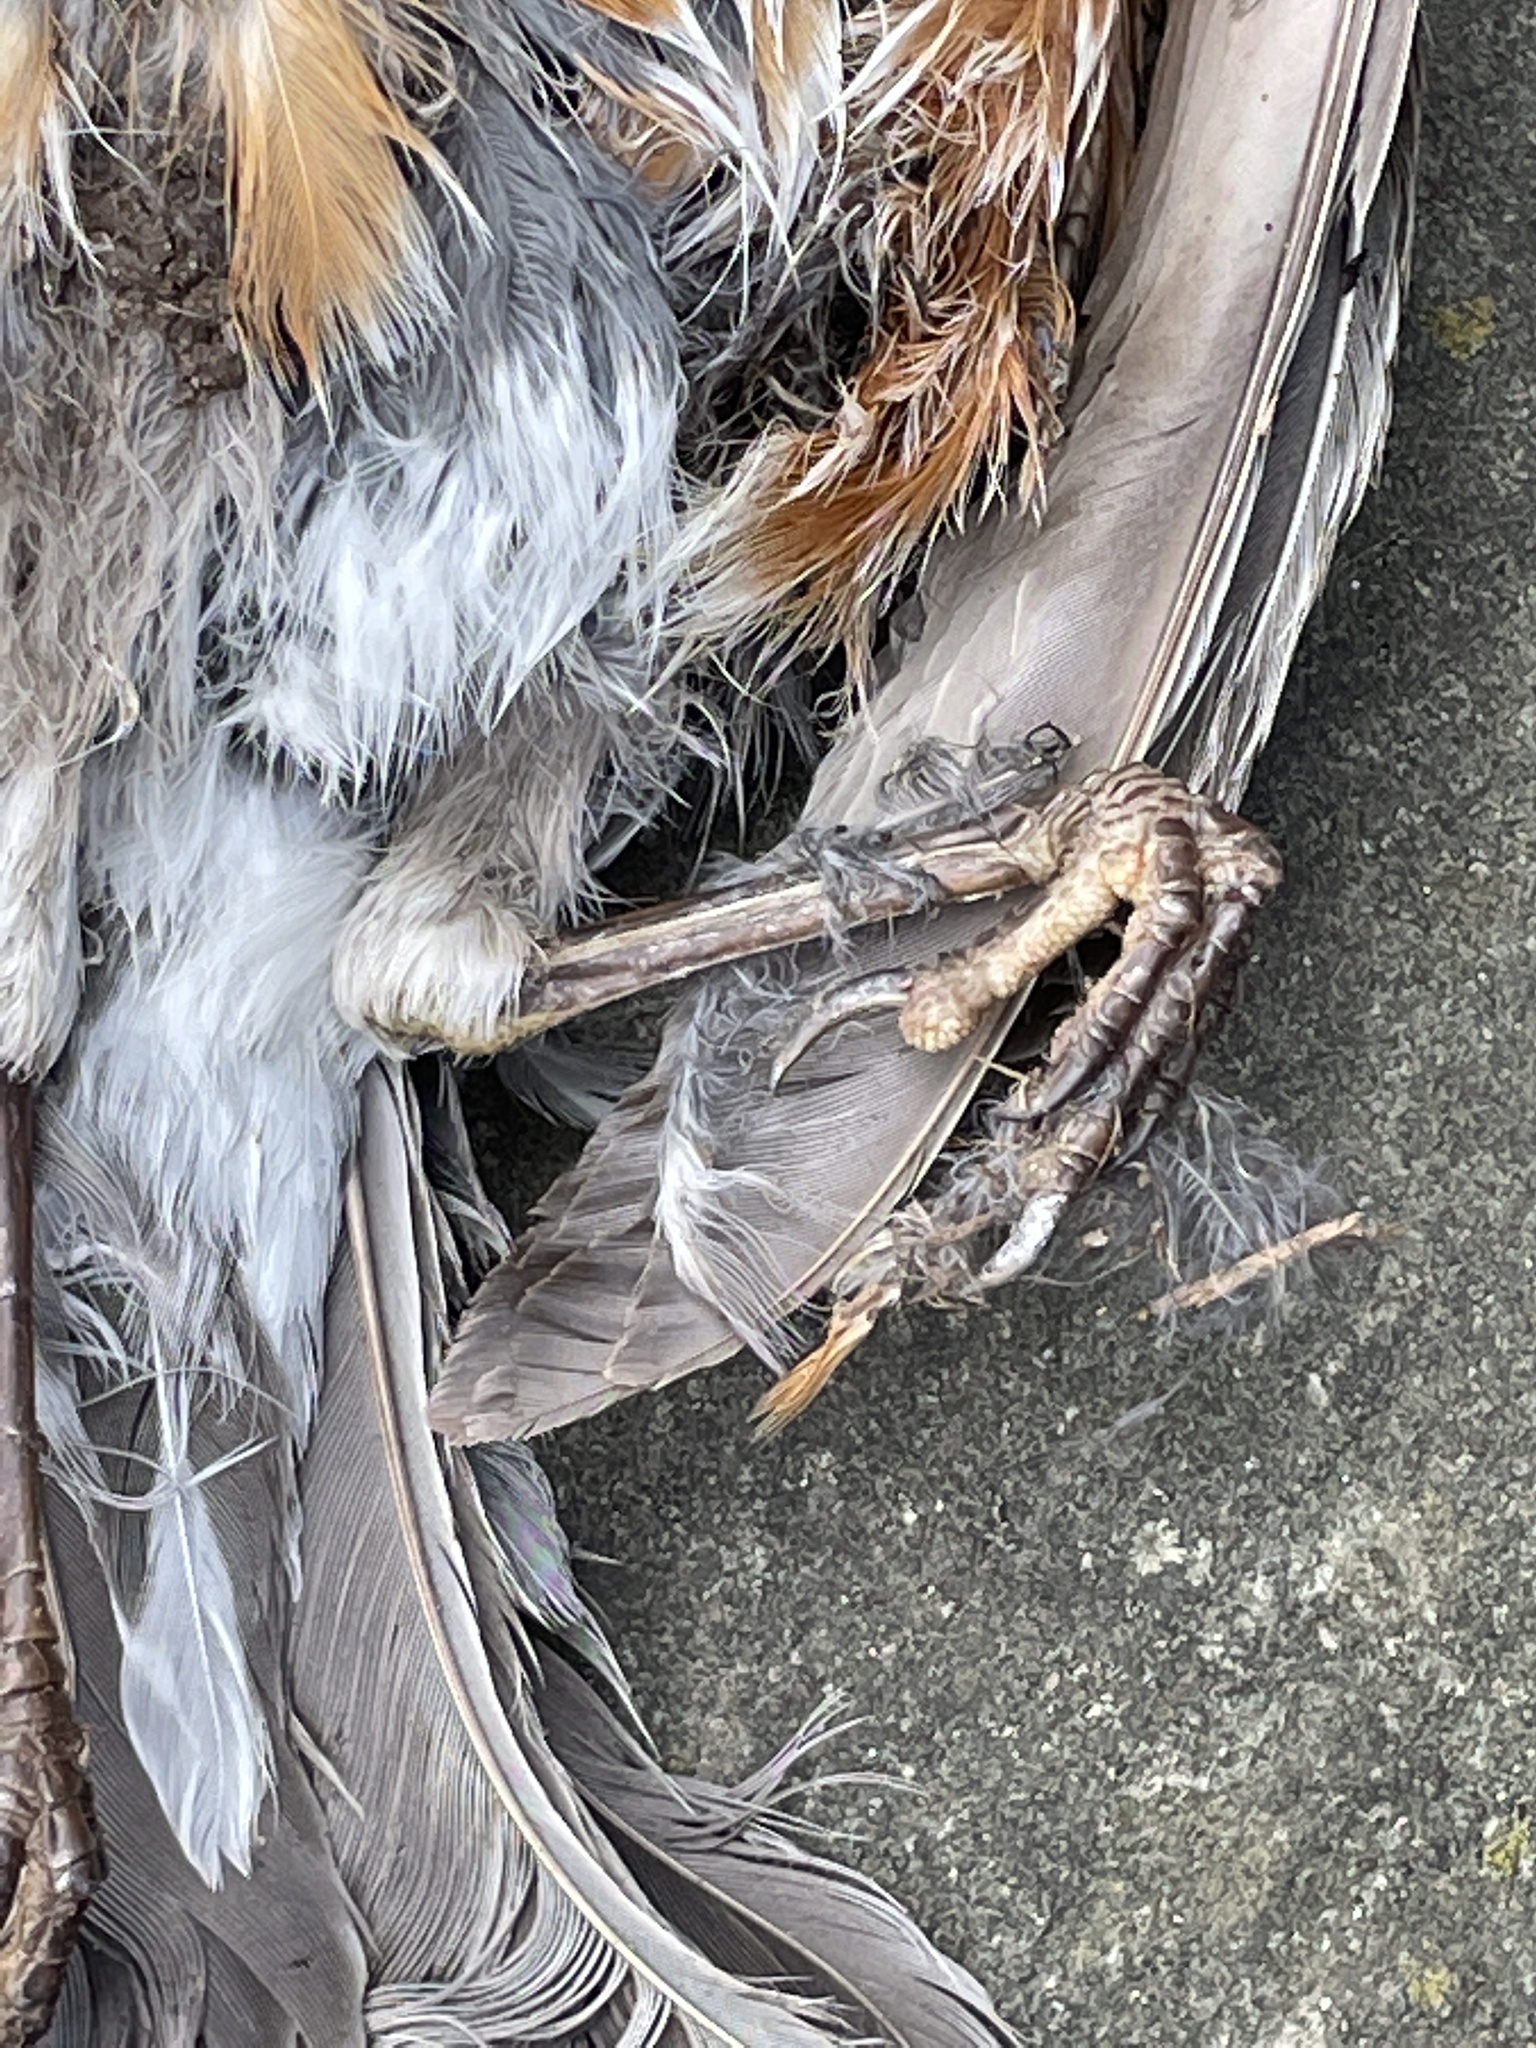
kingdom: Animalia
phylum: Chordata
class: Aves
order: Passeriformes
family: Turdidae
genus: Turdus
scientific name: Turdus migratorius
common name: American robin
